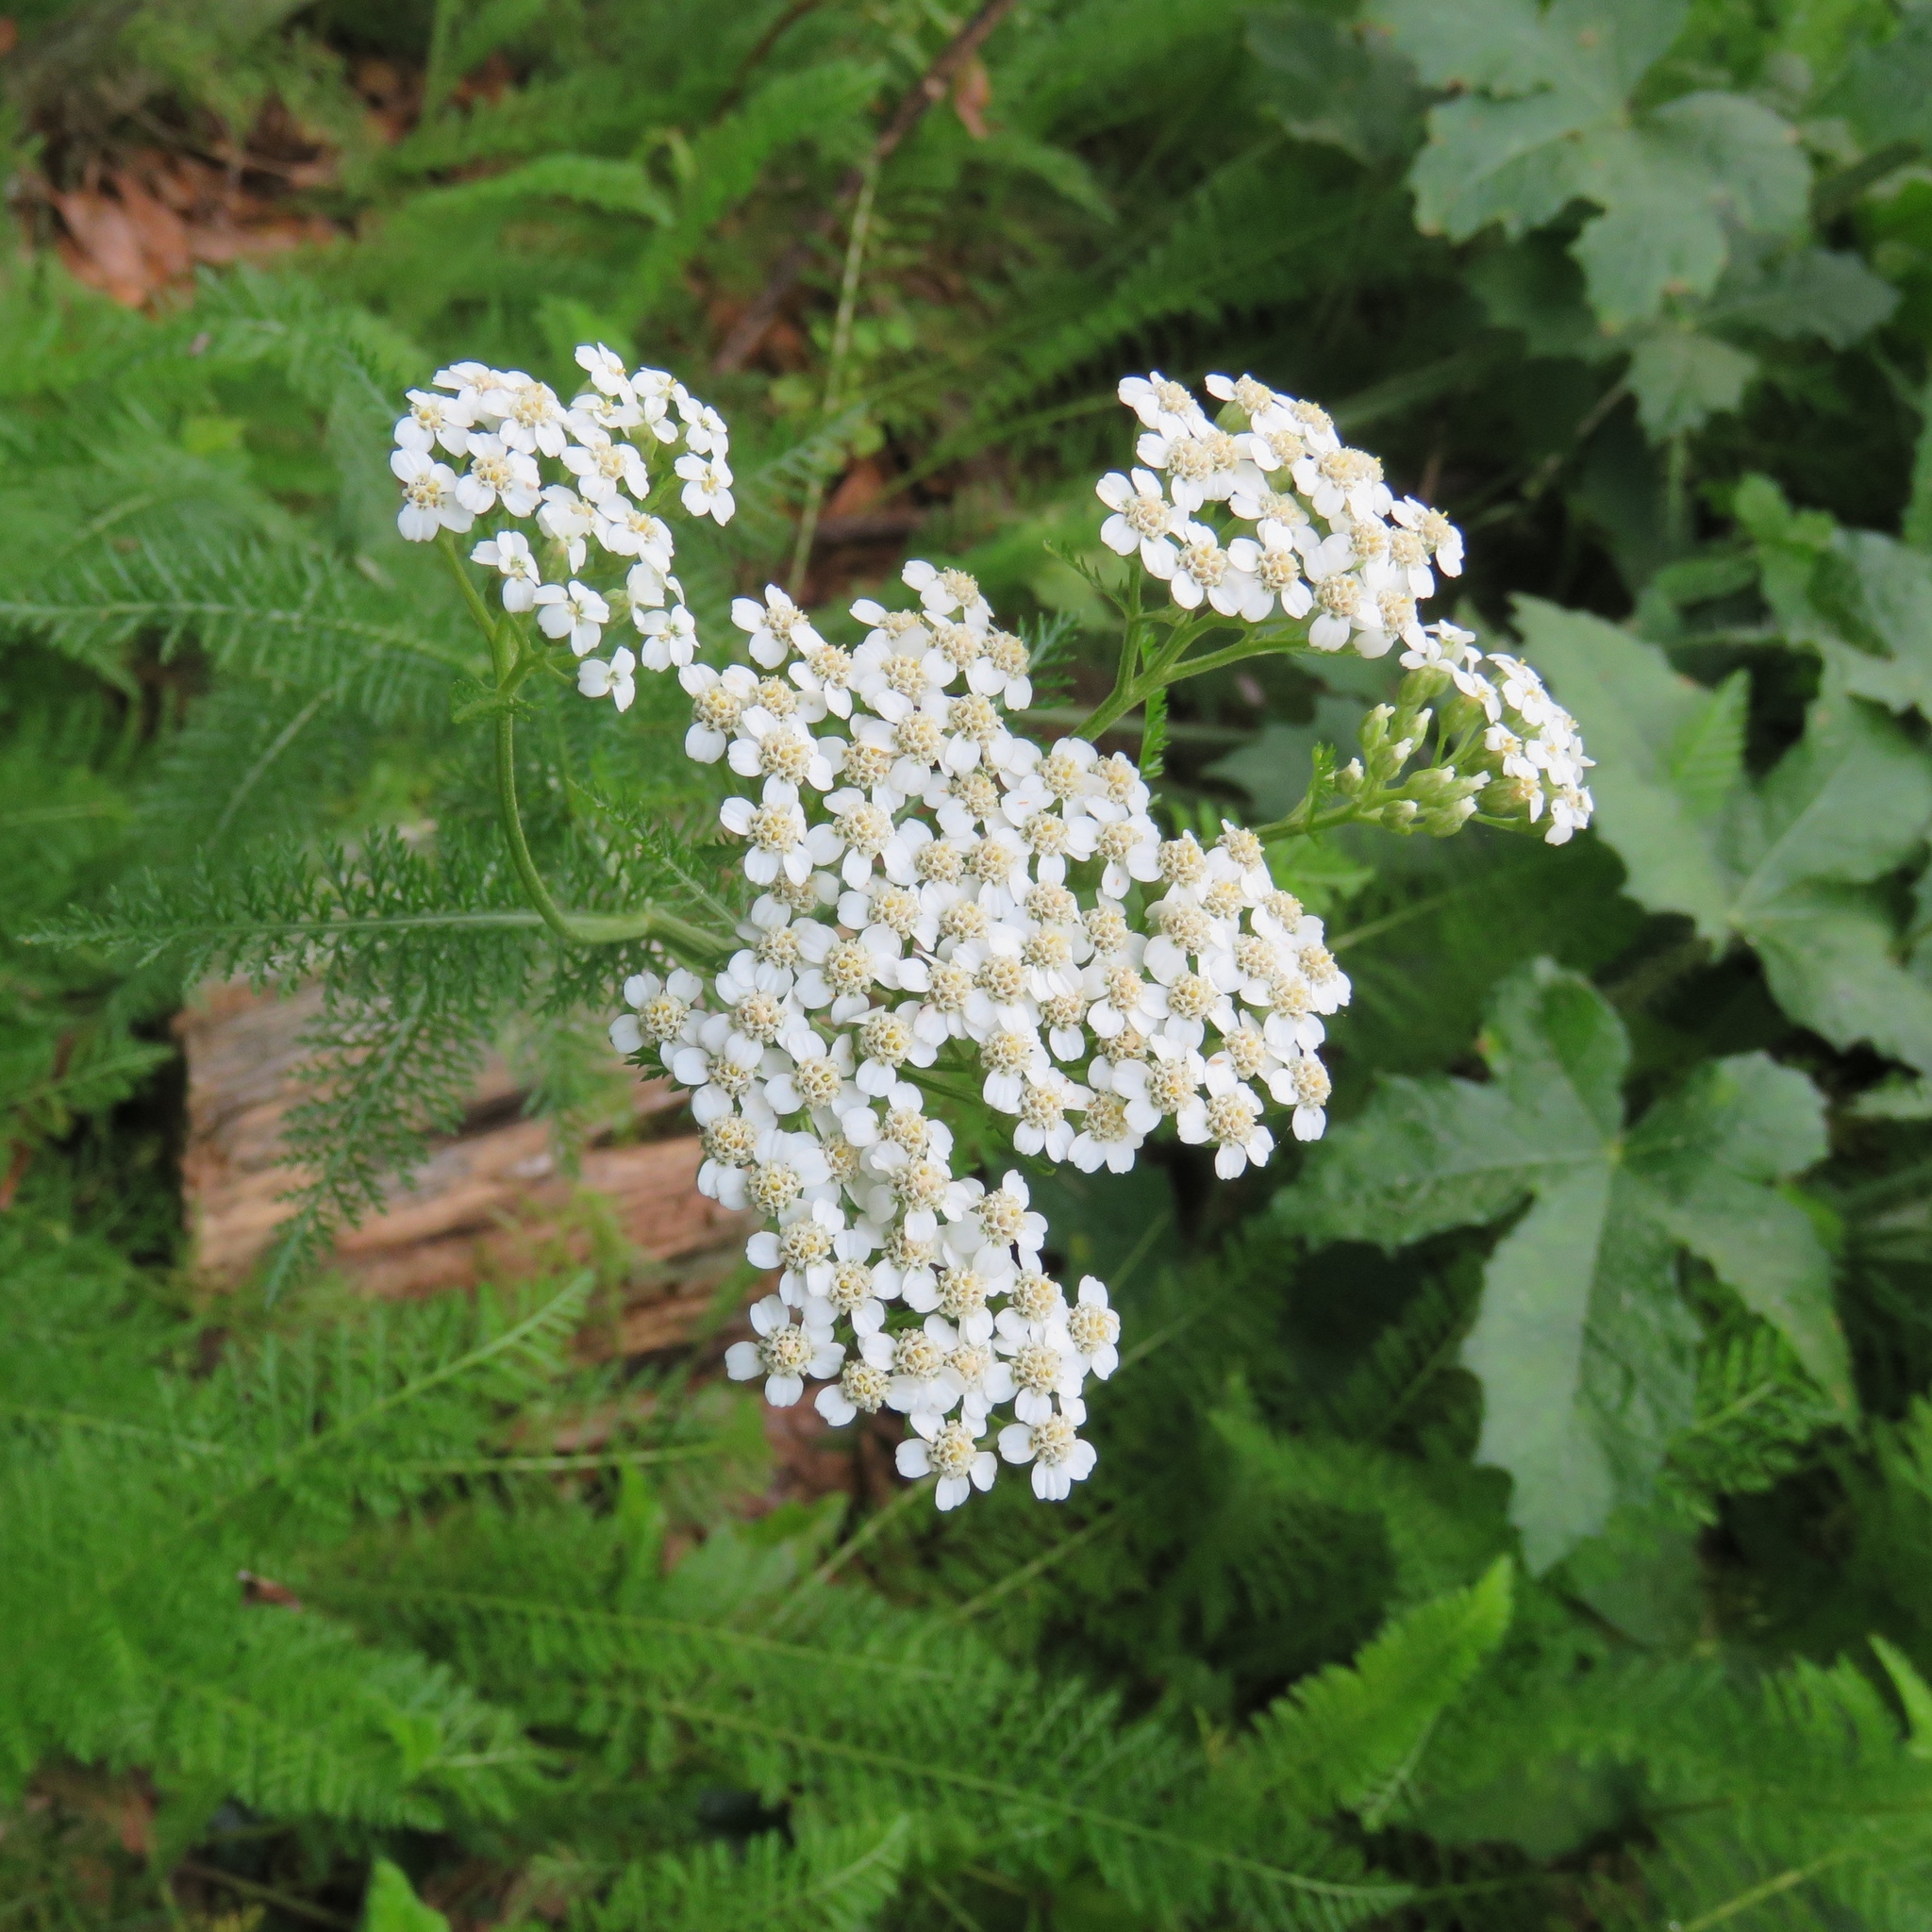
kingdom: Plantae
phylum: Tracheophyta
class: Magnoliopsida
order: Asterales
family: Asteraceae
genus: Achillea
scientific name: Achillea millefolium
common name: Yarrow
